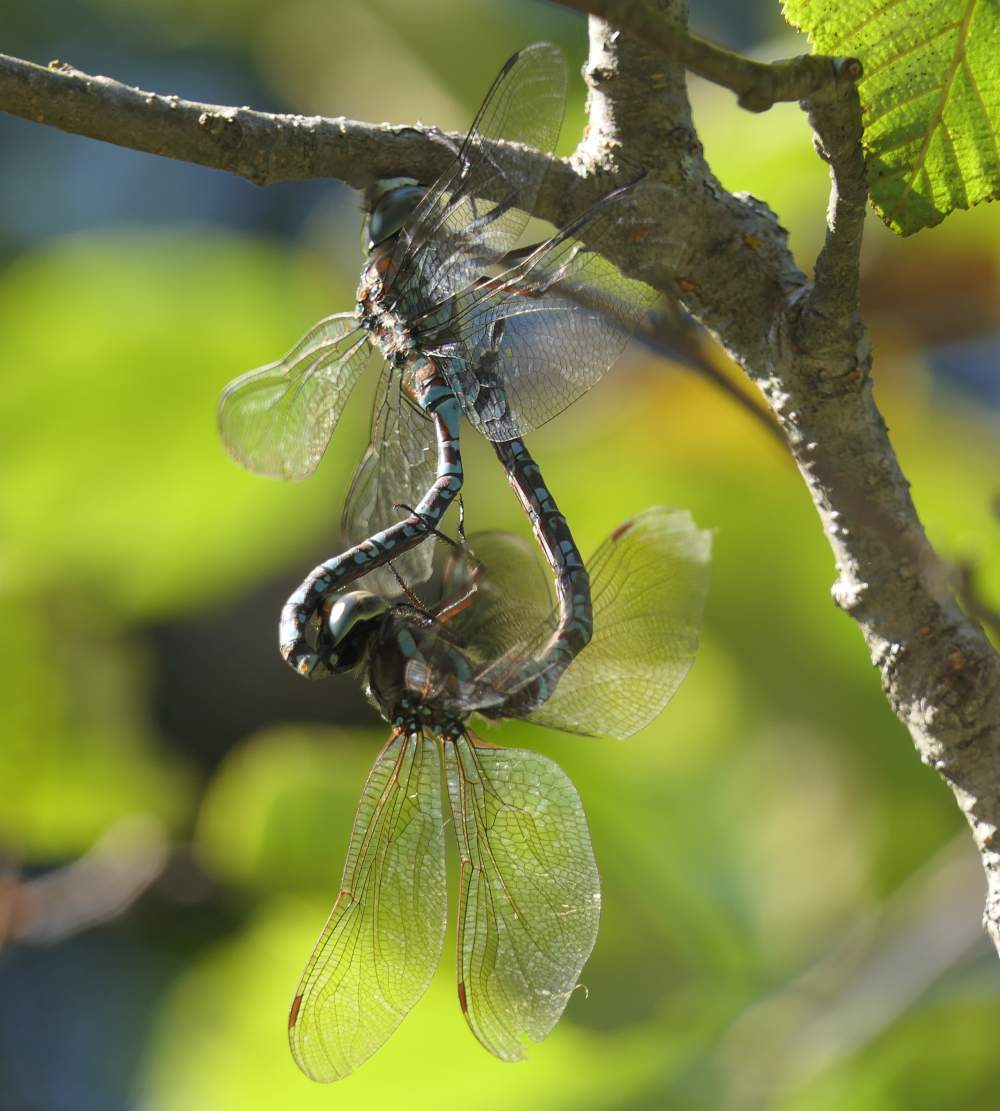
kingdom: Animalia
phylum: Arthropoda
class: Insecta
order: Odonata
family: Aeshnidae
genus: Aeshna
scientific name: Aeshna canadensis
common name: Canada darner
